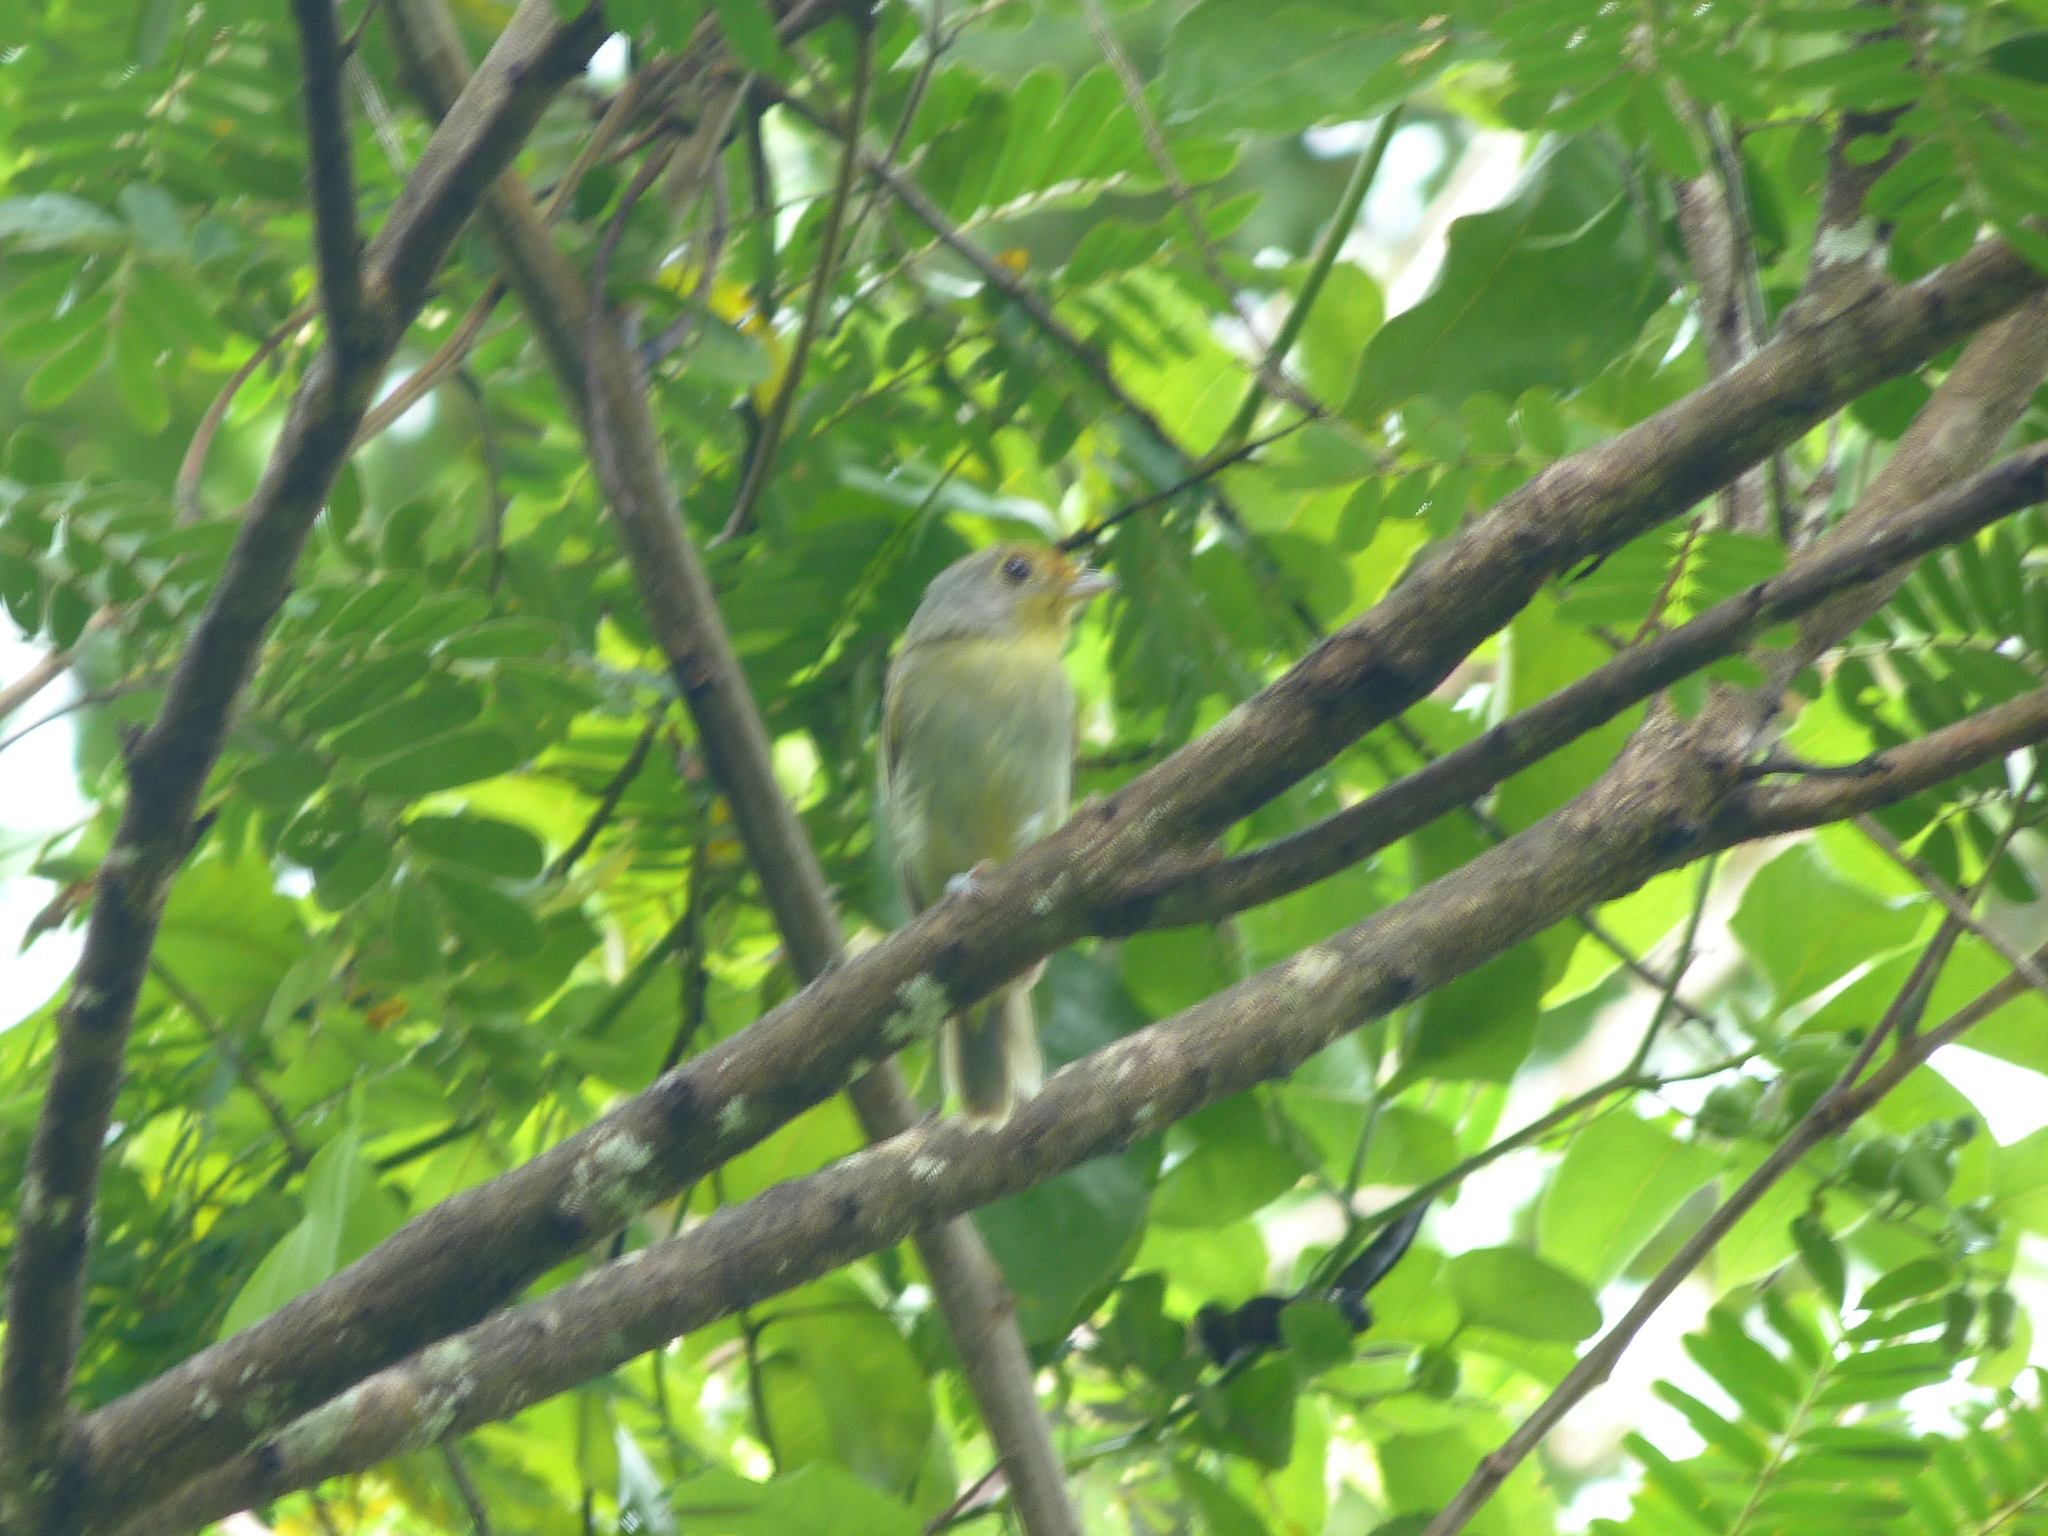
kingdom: Animalia
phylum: Chordata
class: Aves
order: Passeriformes
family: Cotingidae
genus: Piprites
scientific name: Piprites chloris
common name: Wing-barred piprites
